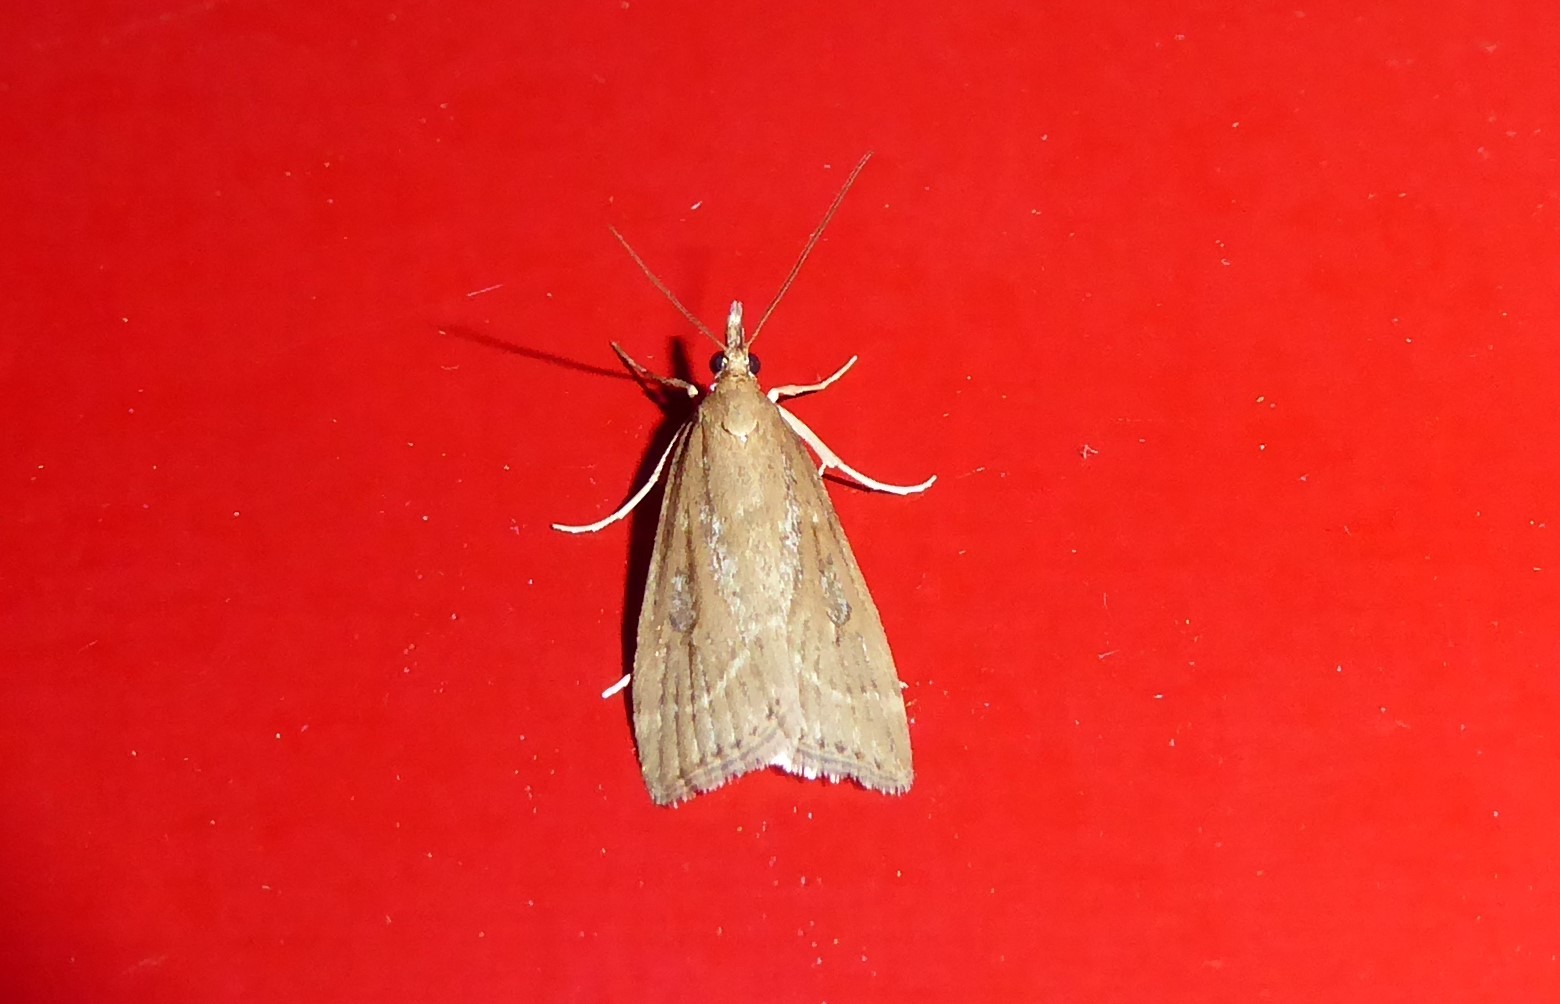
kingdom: Animalia
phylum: Arthropoda
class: Insecta
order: Lepidoptera
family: Crambidae
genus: Eudonia
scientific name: Eudonia octophora
